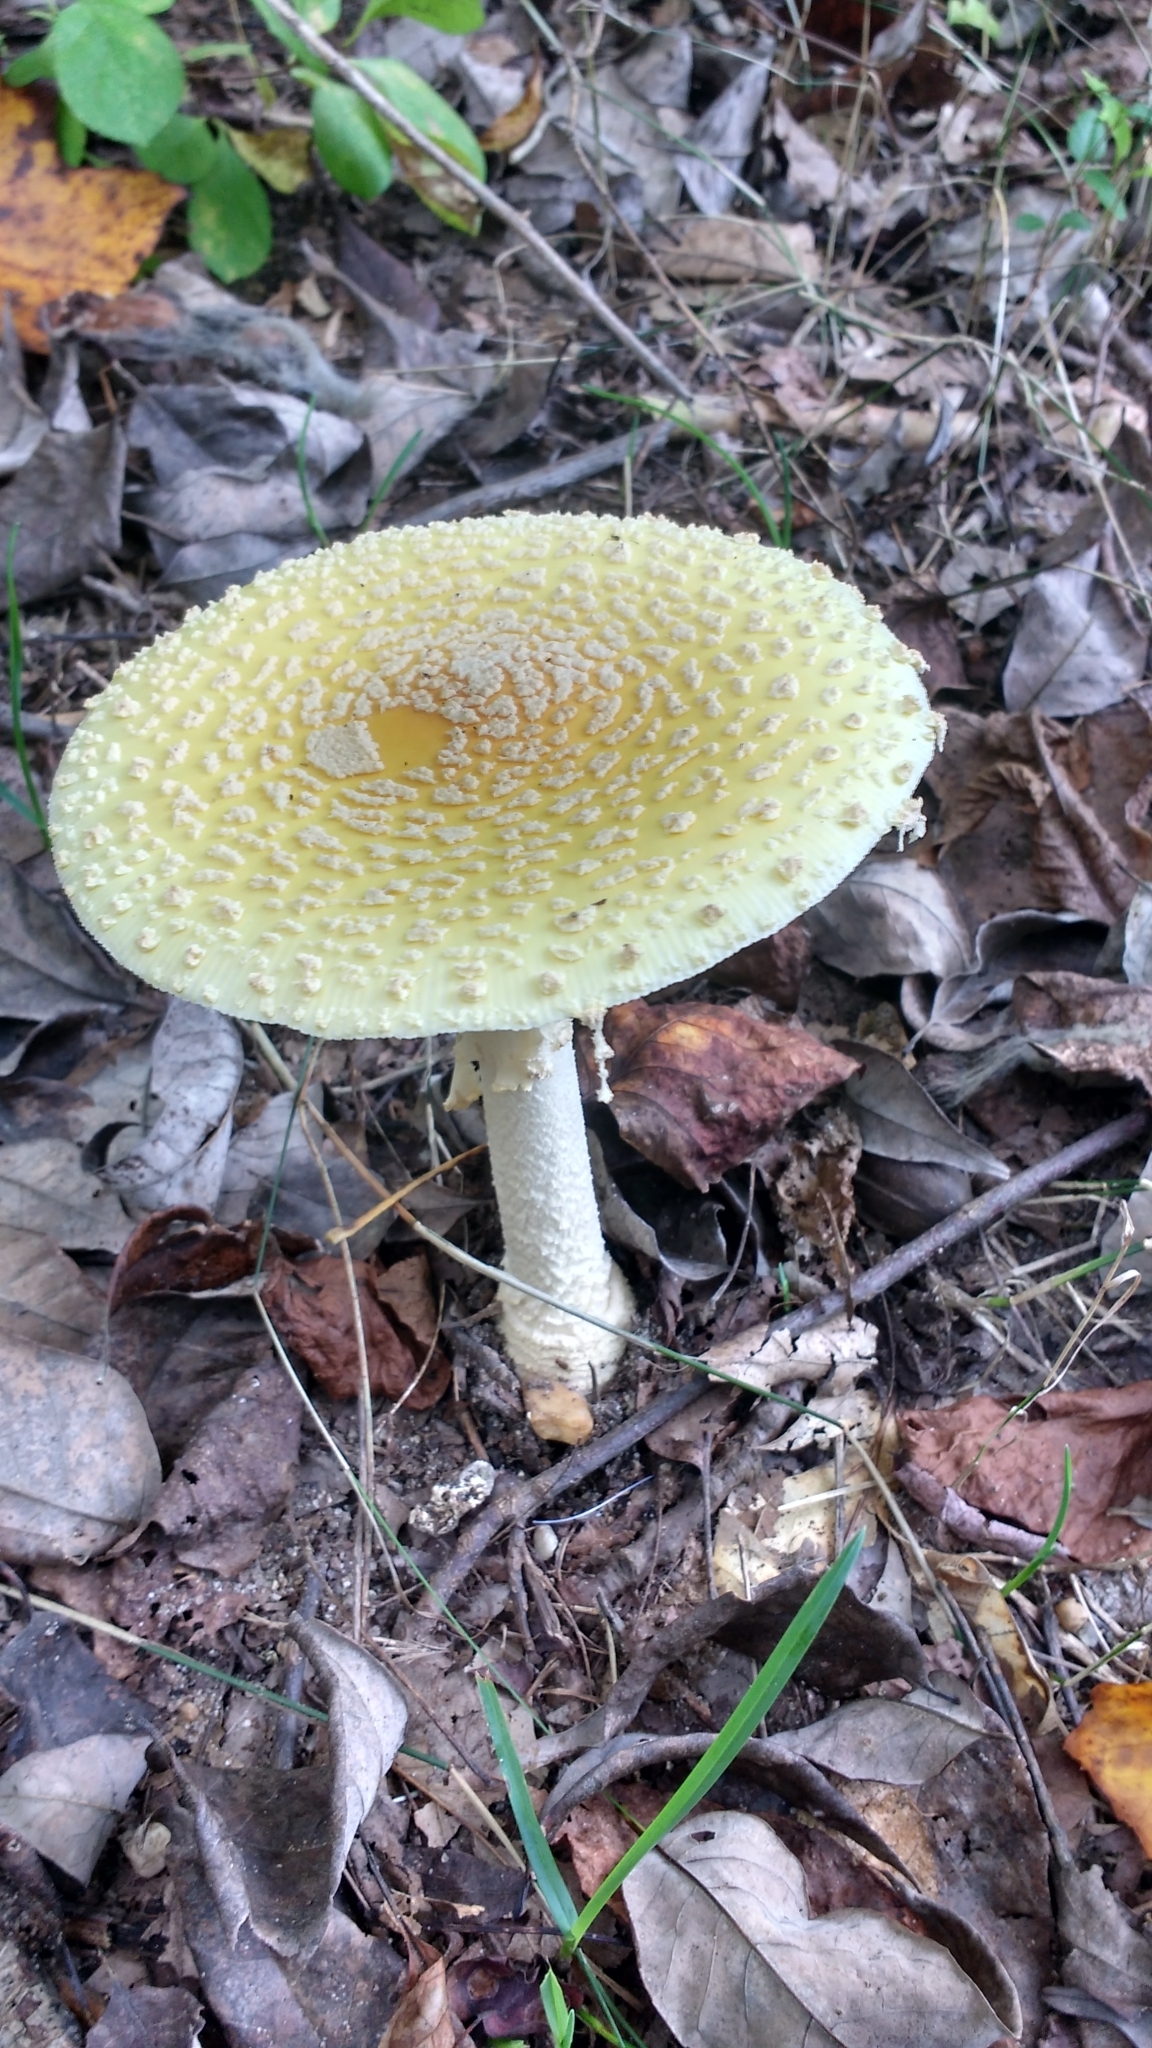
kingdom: Fungi
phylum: Basidiomycota
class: Agaricomycetes
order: Agaricales
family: Amanitaceae
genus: Amanita
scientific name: Amanita muscaria
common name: Fly agaric
